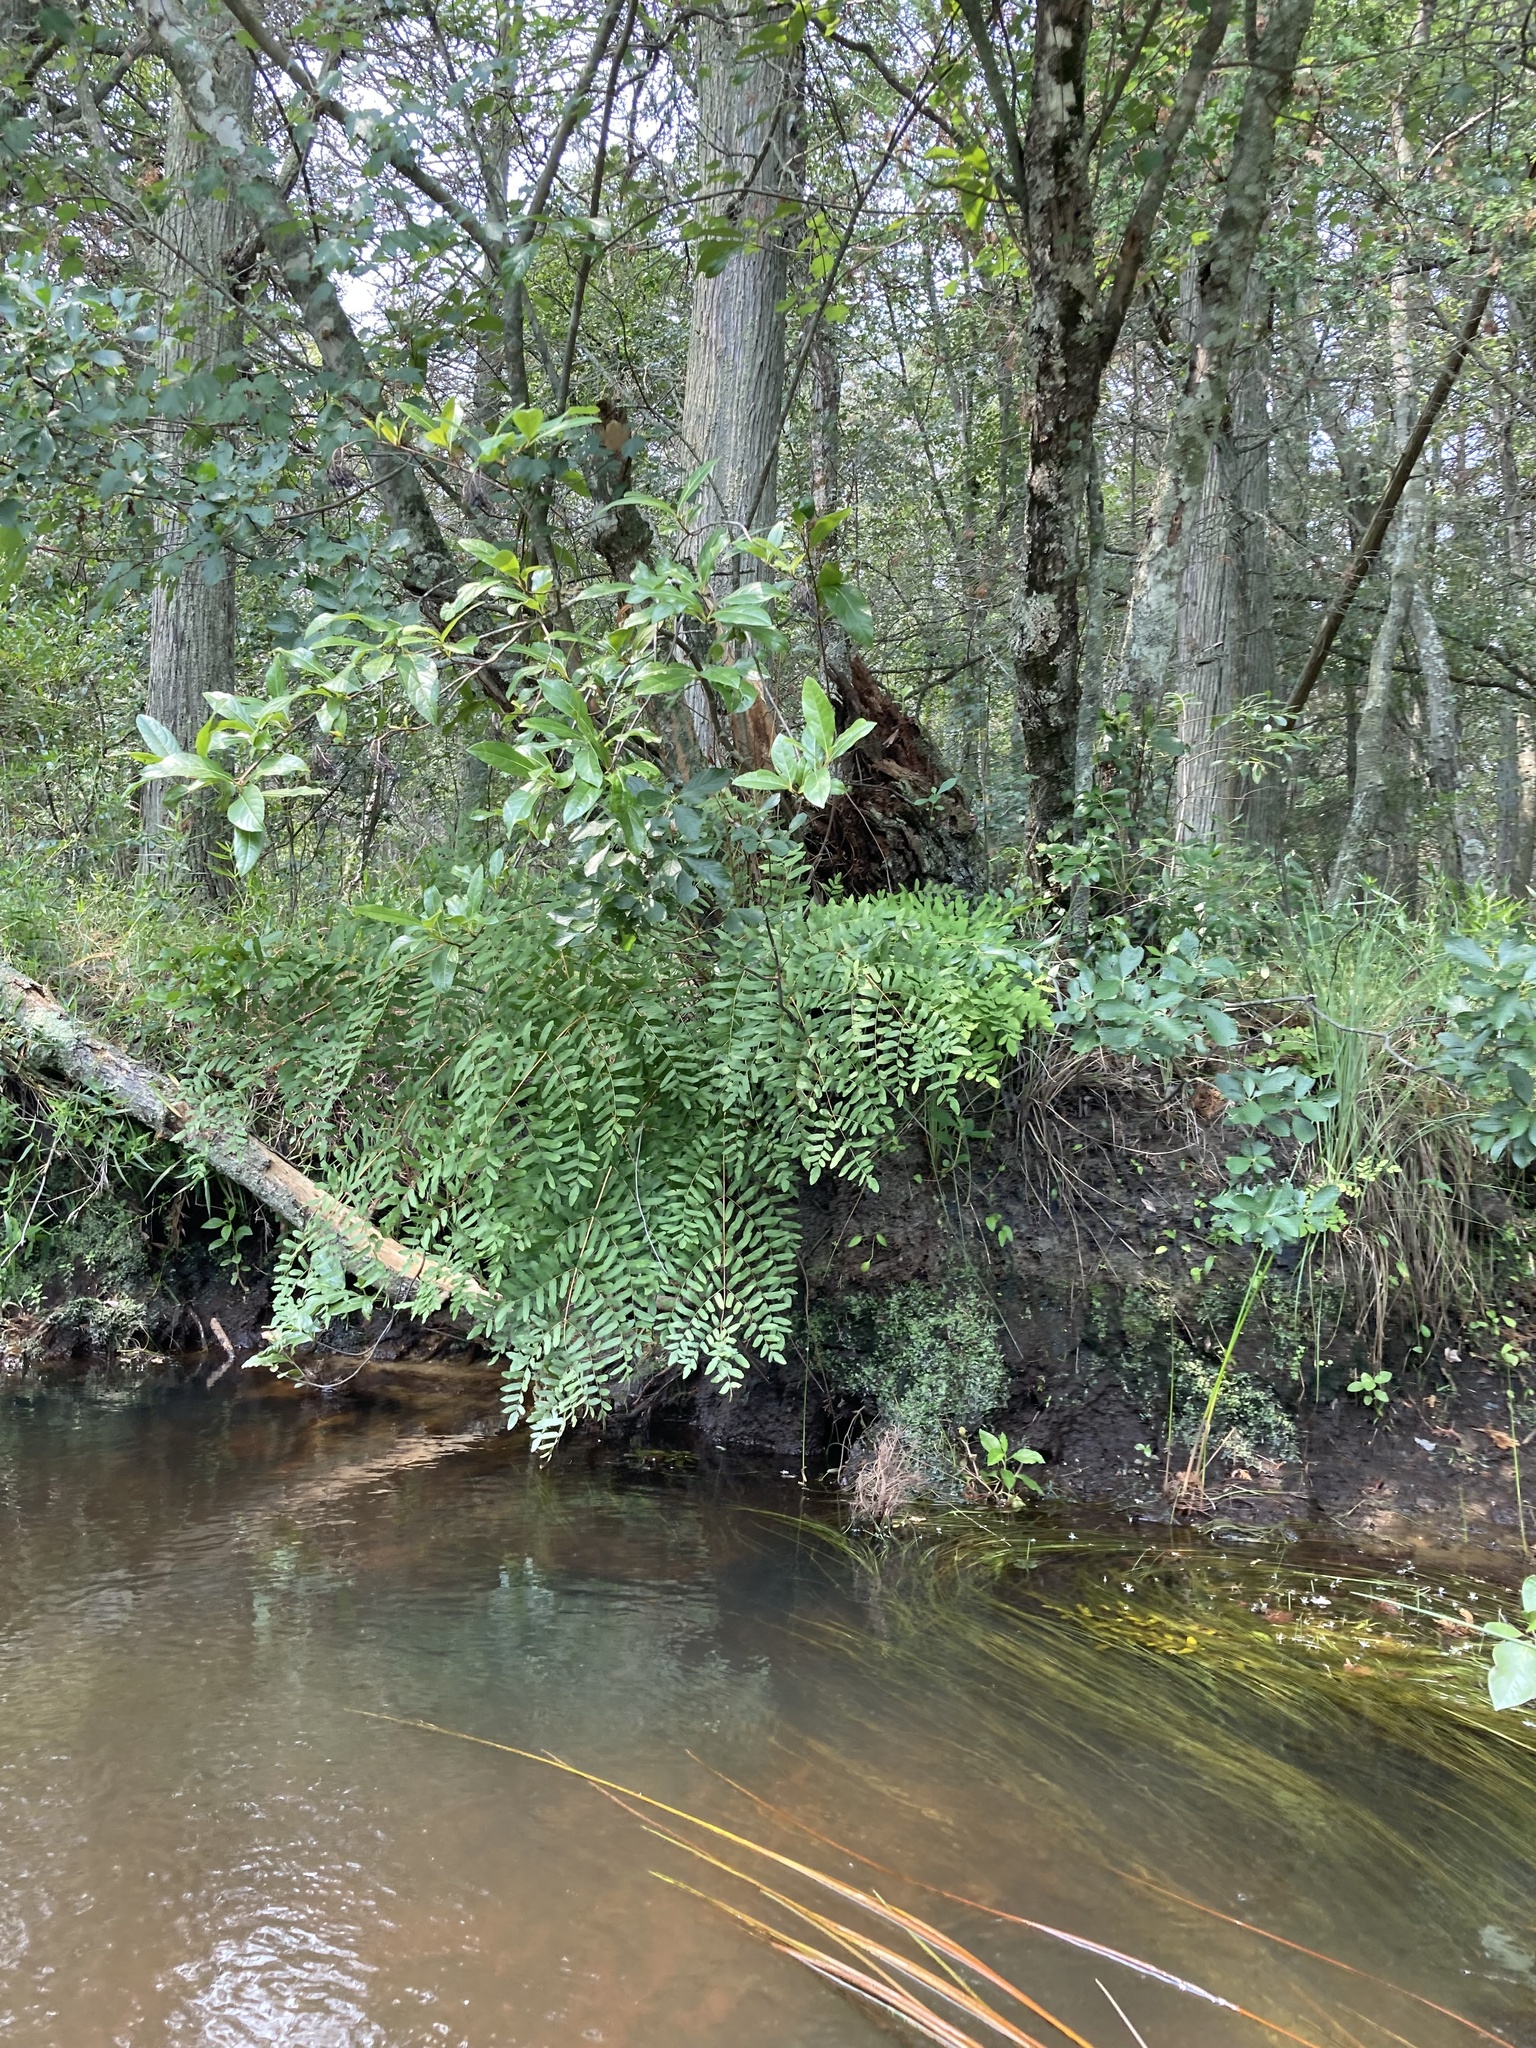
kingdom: Plantae
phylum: Tracheophyta
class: Polypodiopsida
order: Osmundales
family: Osmundaceae
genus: Osmunda
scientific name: Osmunda spectabilis
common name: American royal fern
